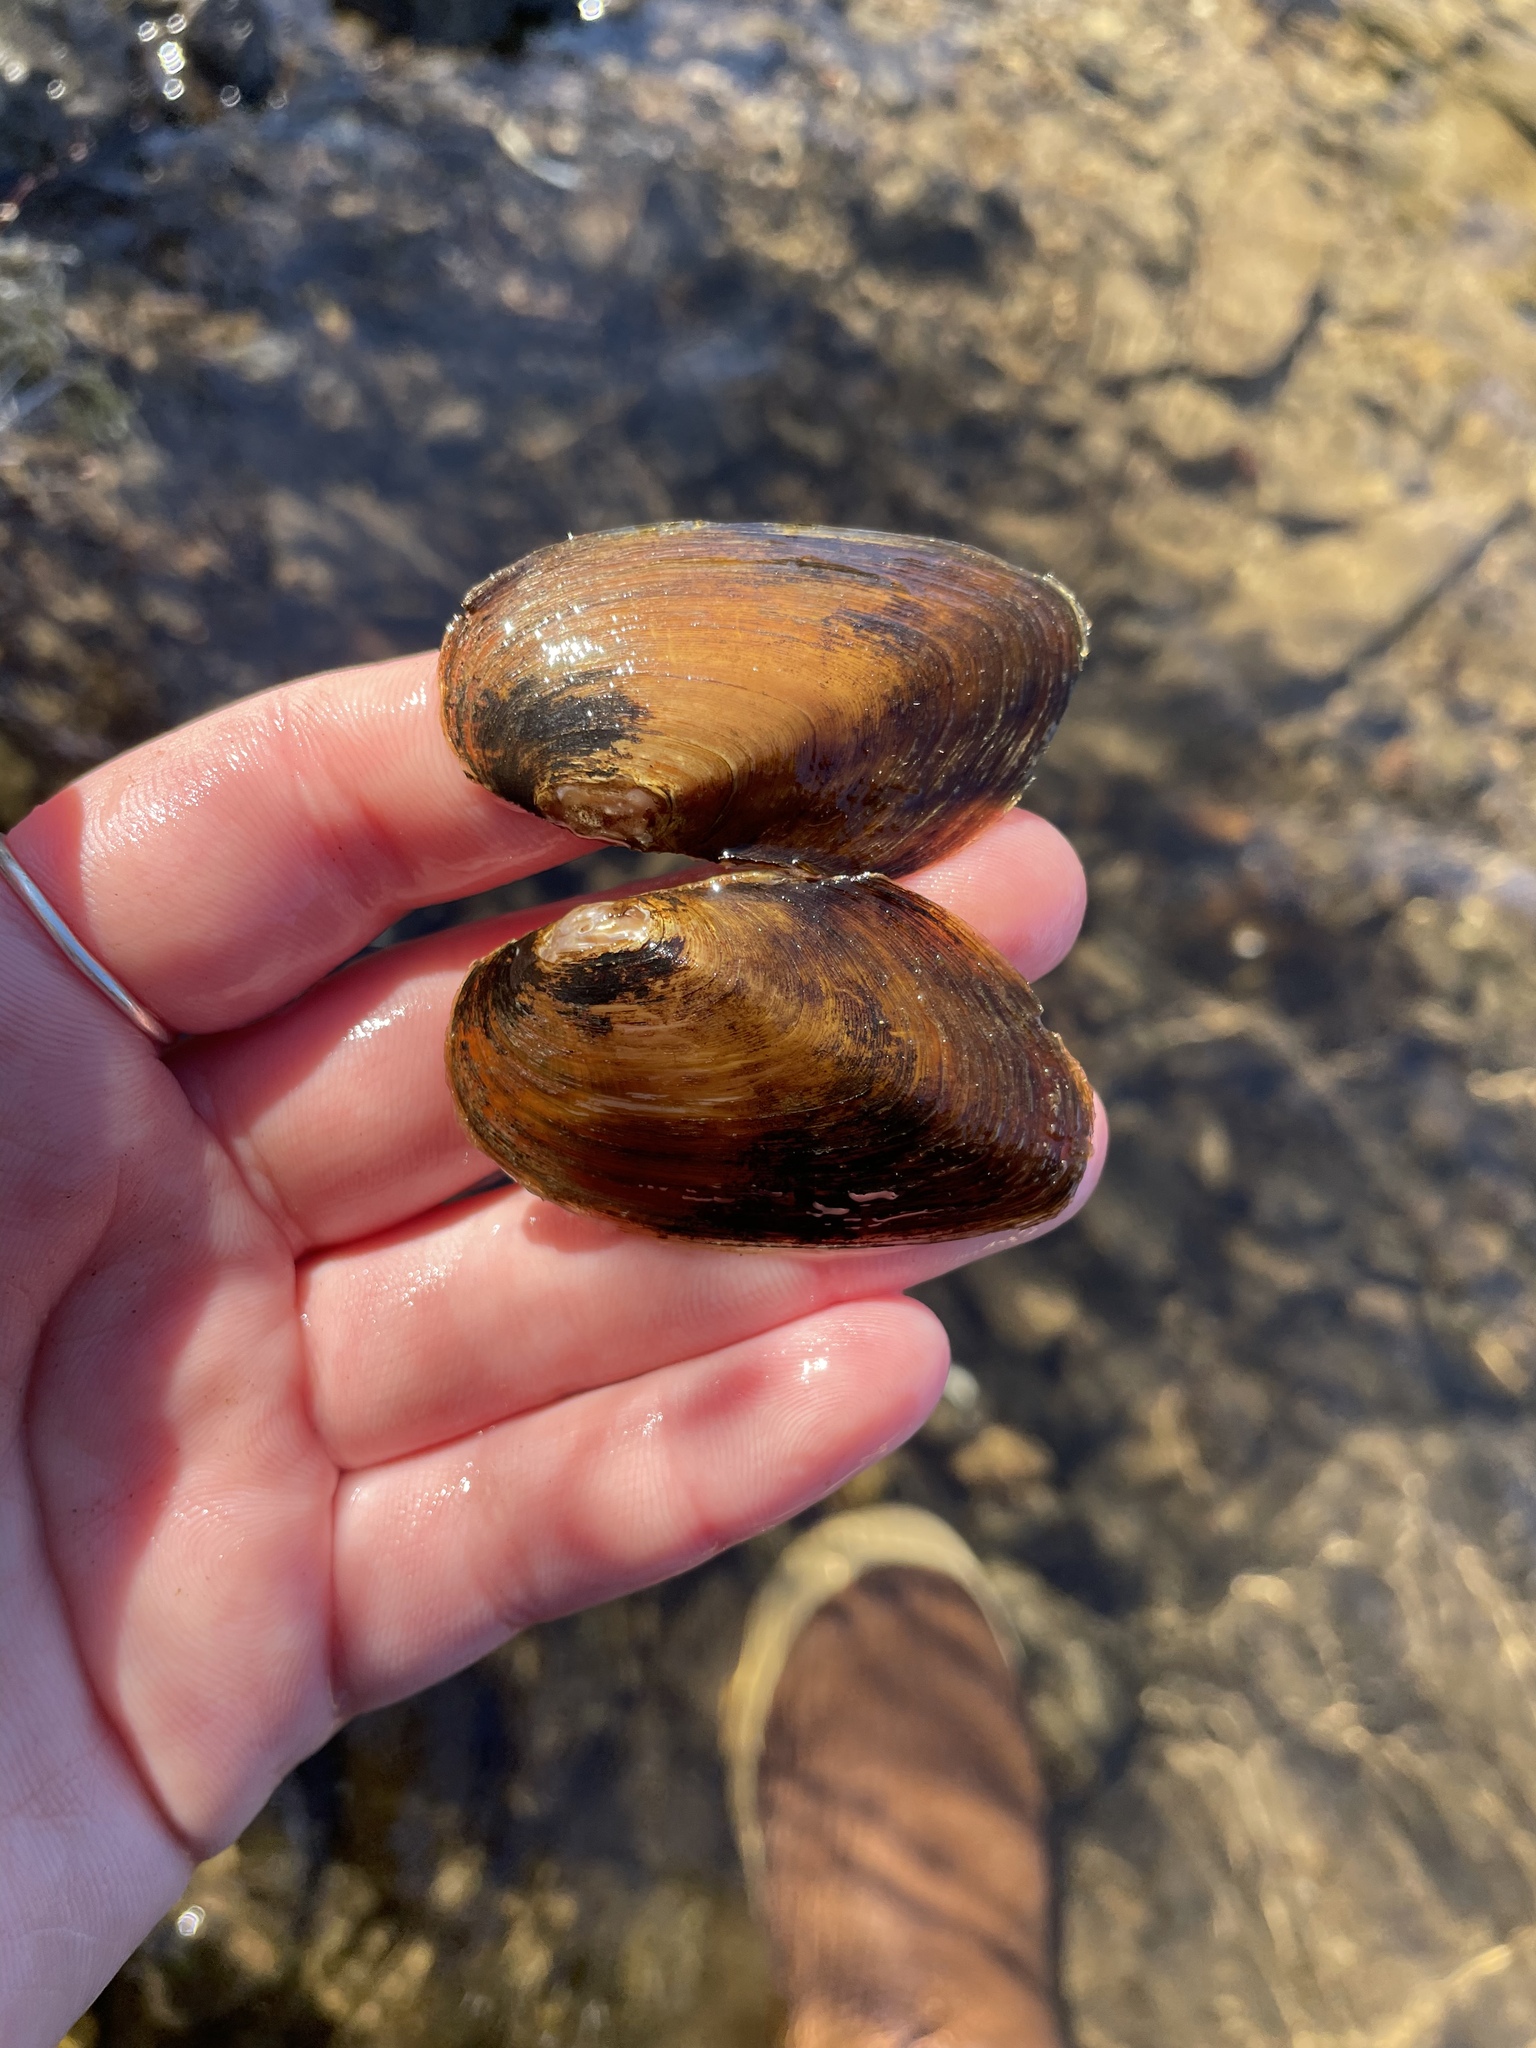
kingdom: Animalia
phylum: Mollusca
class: Bivalvia
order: Unionida
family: Unionidae
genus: Elliptio
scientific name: Elliptio complanata
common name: Eastern elliptio
